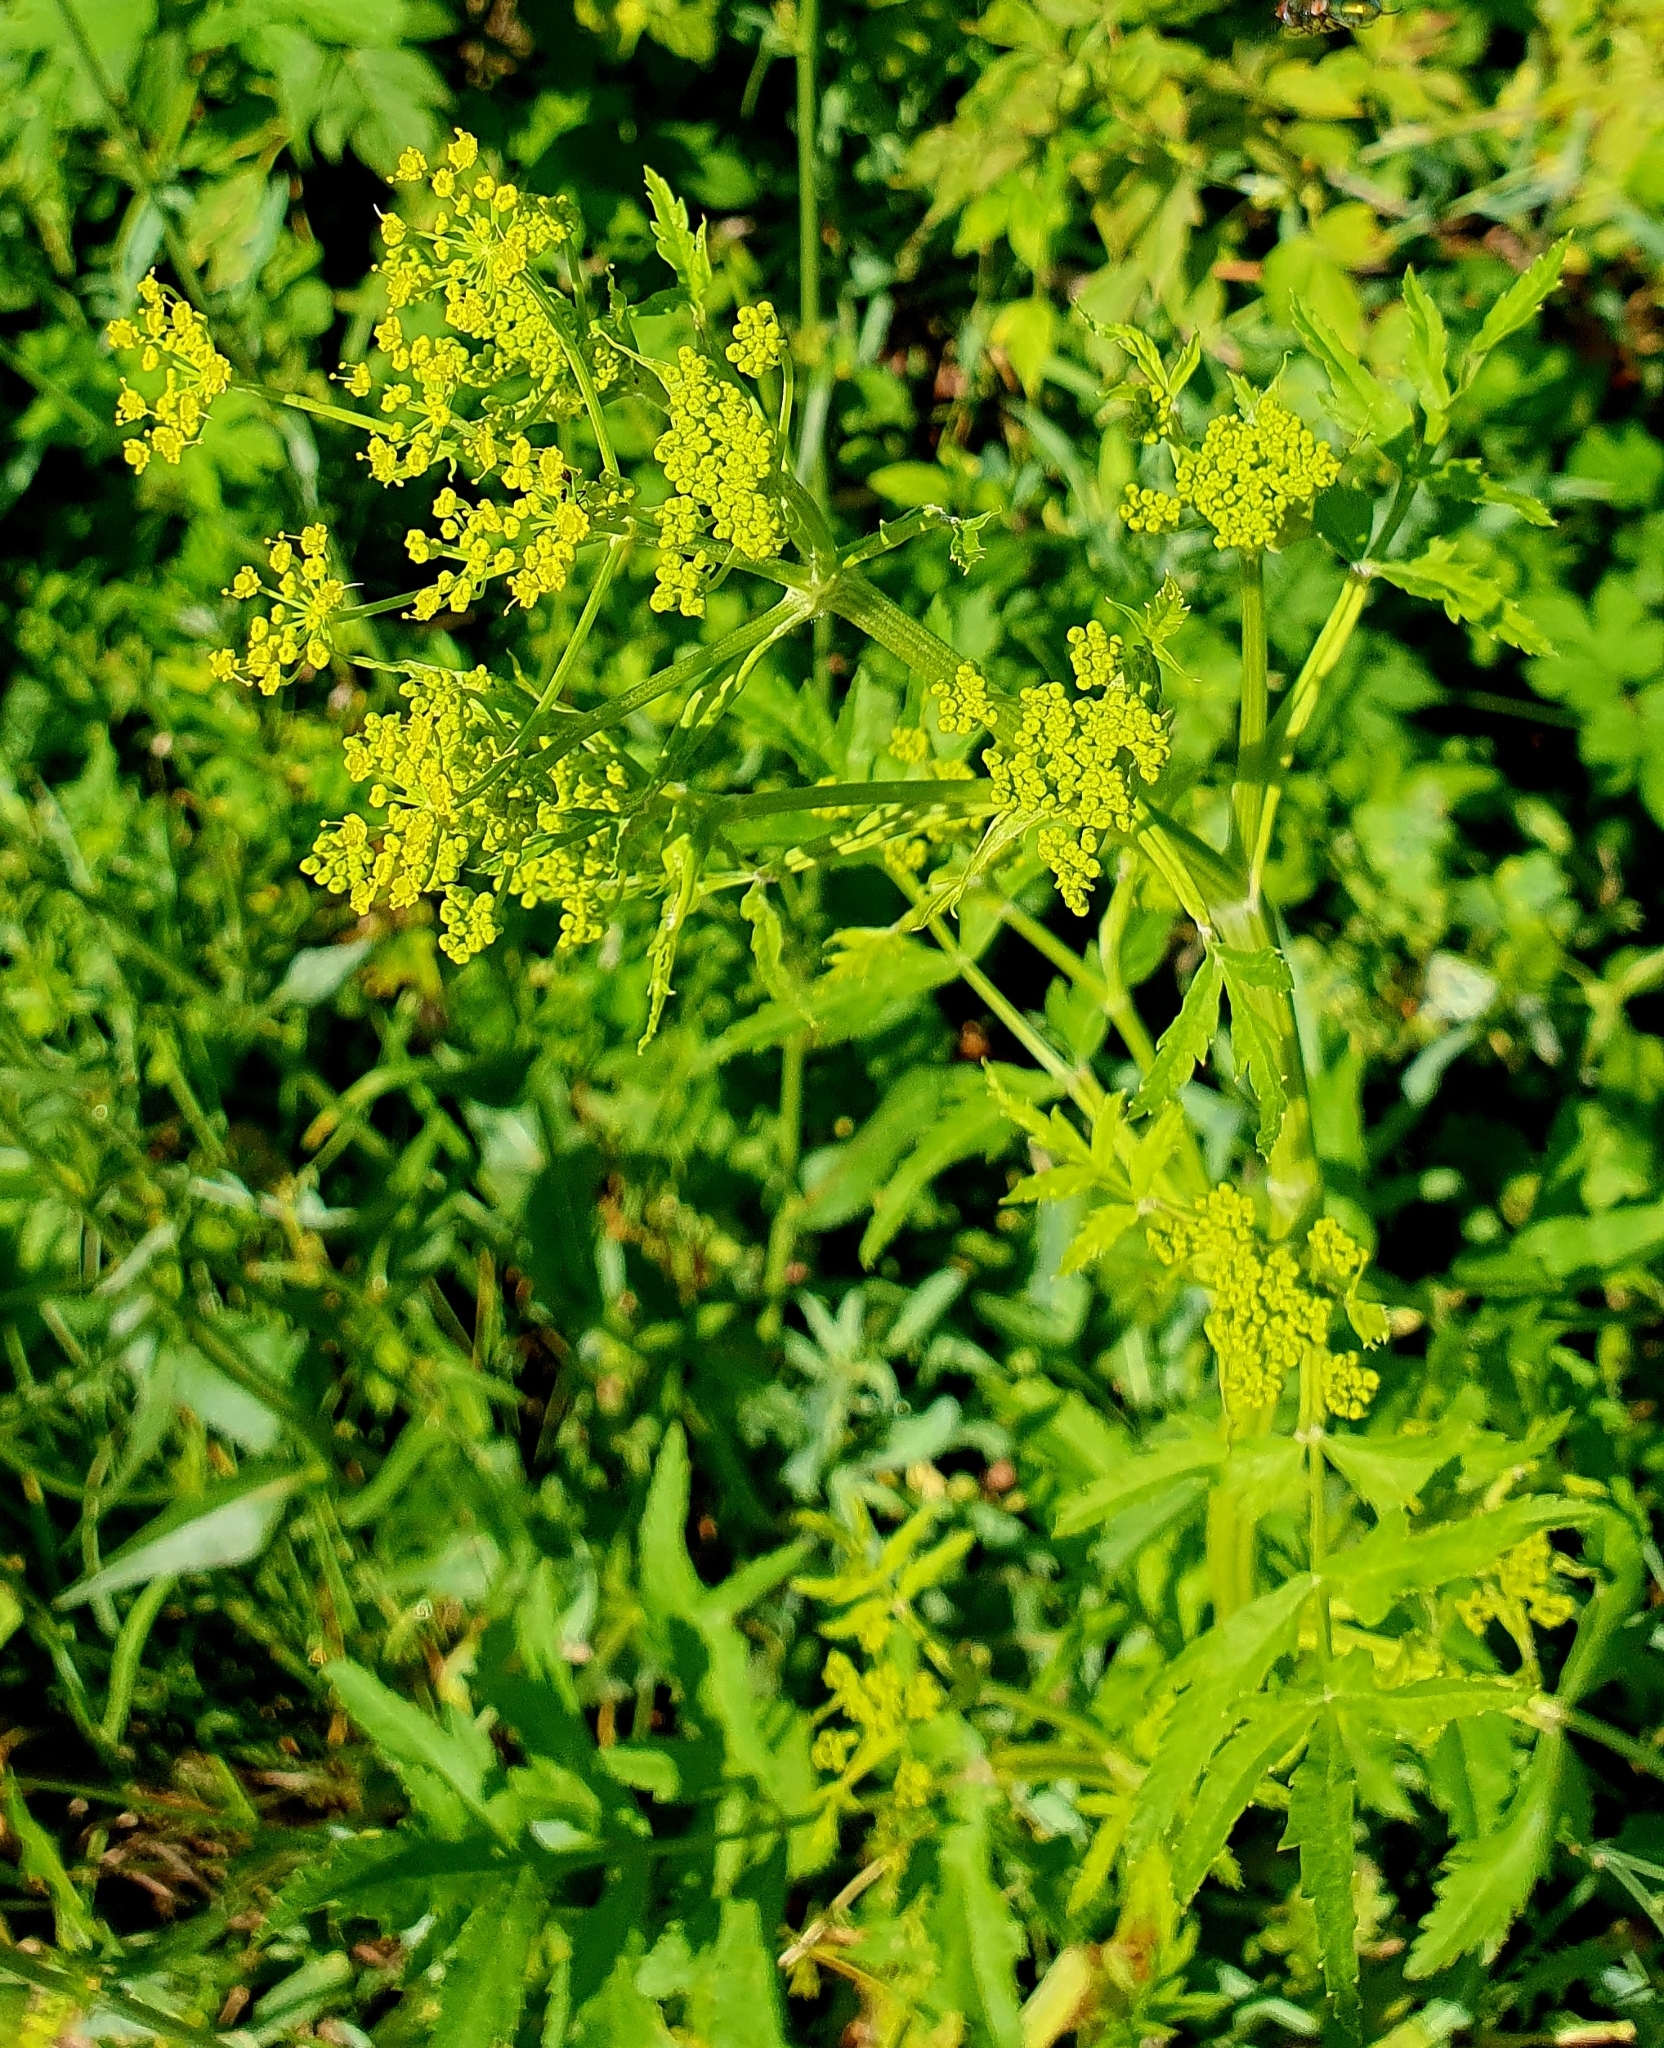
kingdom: Plantae
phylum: Tracheophyta
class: Magnoliopsida
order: Apiales
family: Apiaceae
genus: Pastinaca
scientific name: Pastinaca sativa
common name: Wild parsnip
